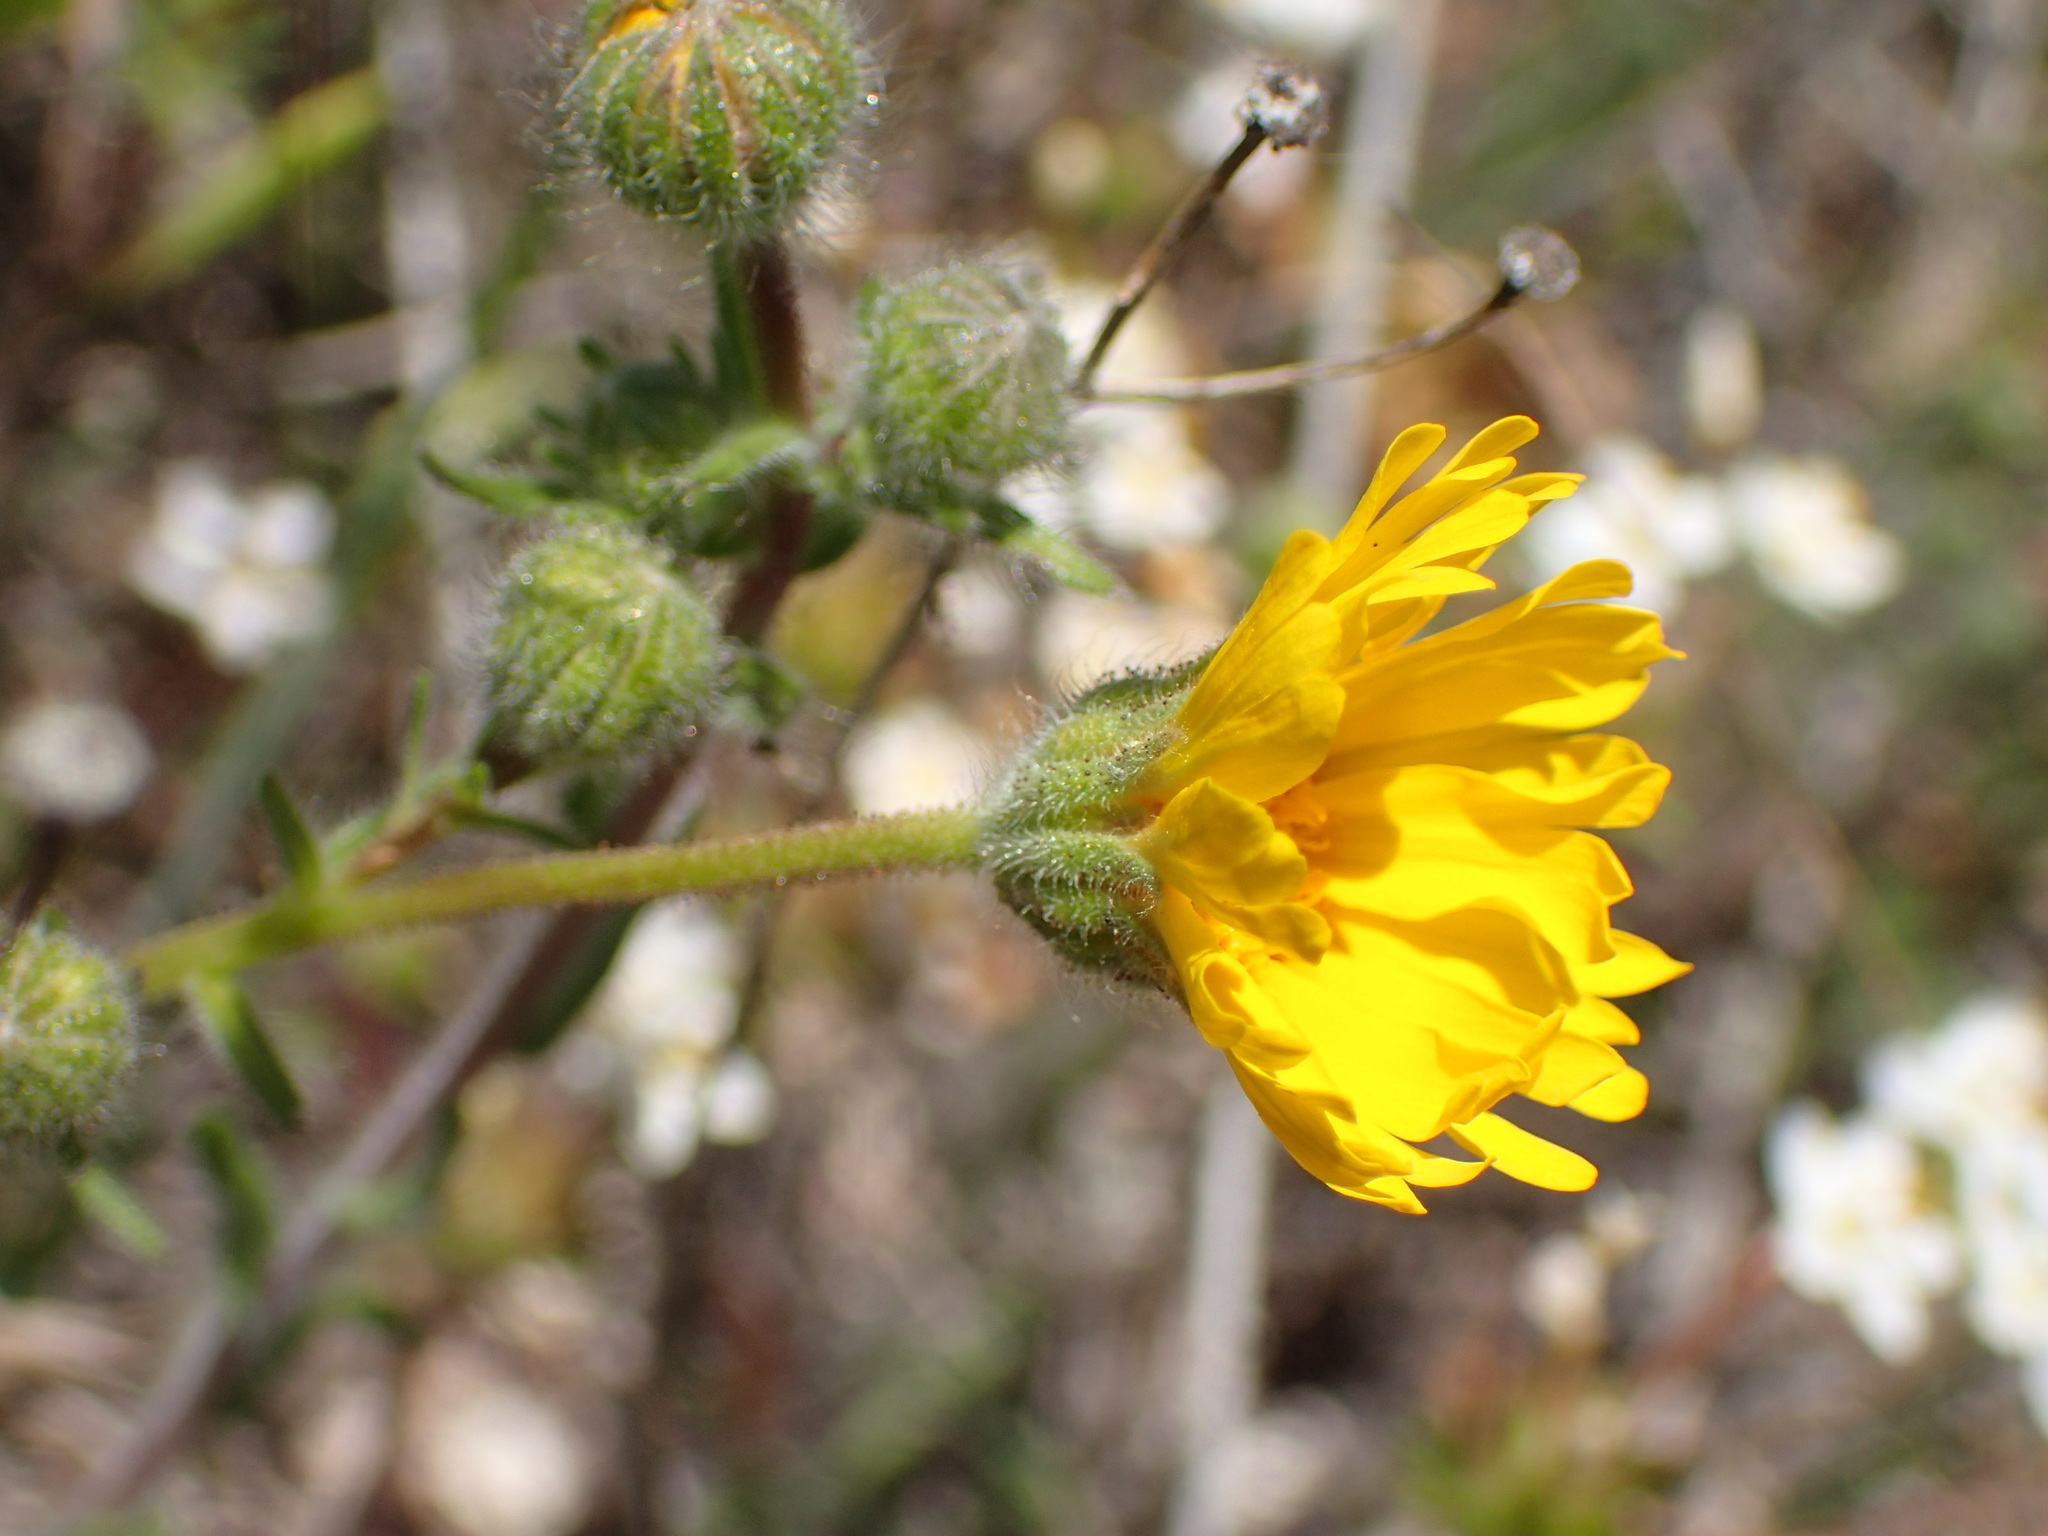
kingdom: Plantae
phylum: Tracheophyta
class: Magnoliopsida
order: Asterales
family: Asteraceae
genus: Madia
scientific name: Madia elegans
